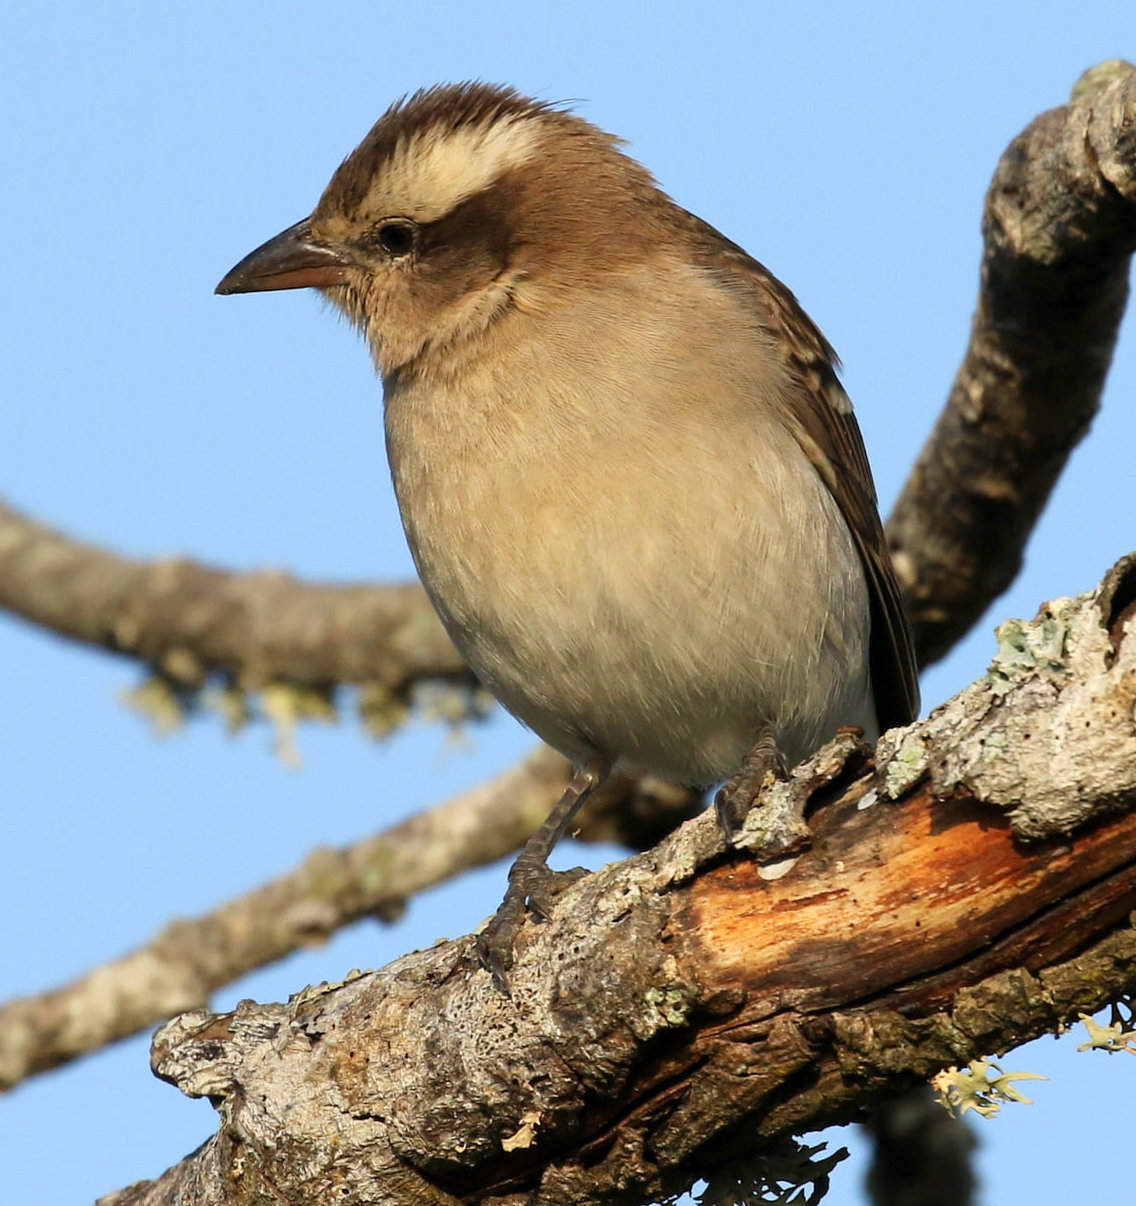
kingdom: Animalia
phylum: Chordata
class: Aves
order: Passeriformes
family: Passeridae
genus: Gymnoris
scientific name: Gymnoris superciliaris
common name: Yellow-throated petronia
